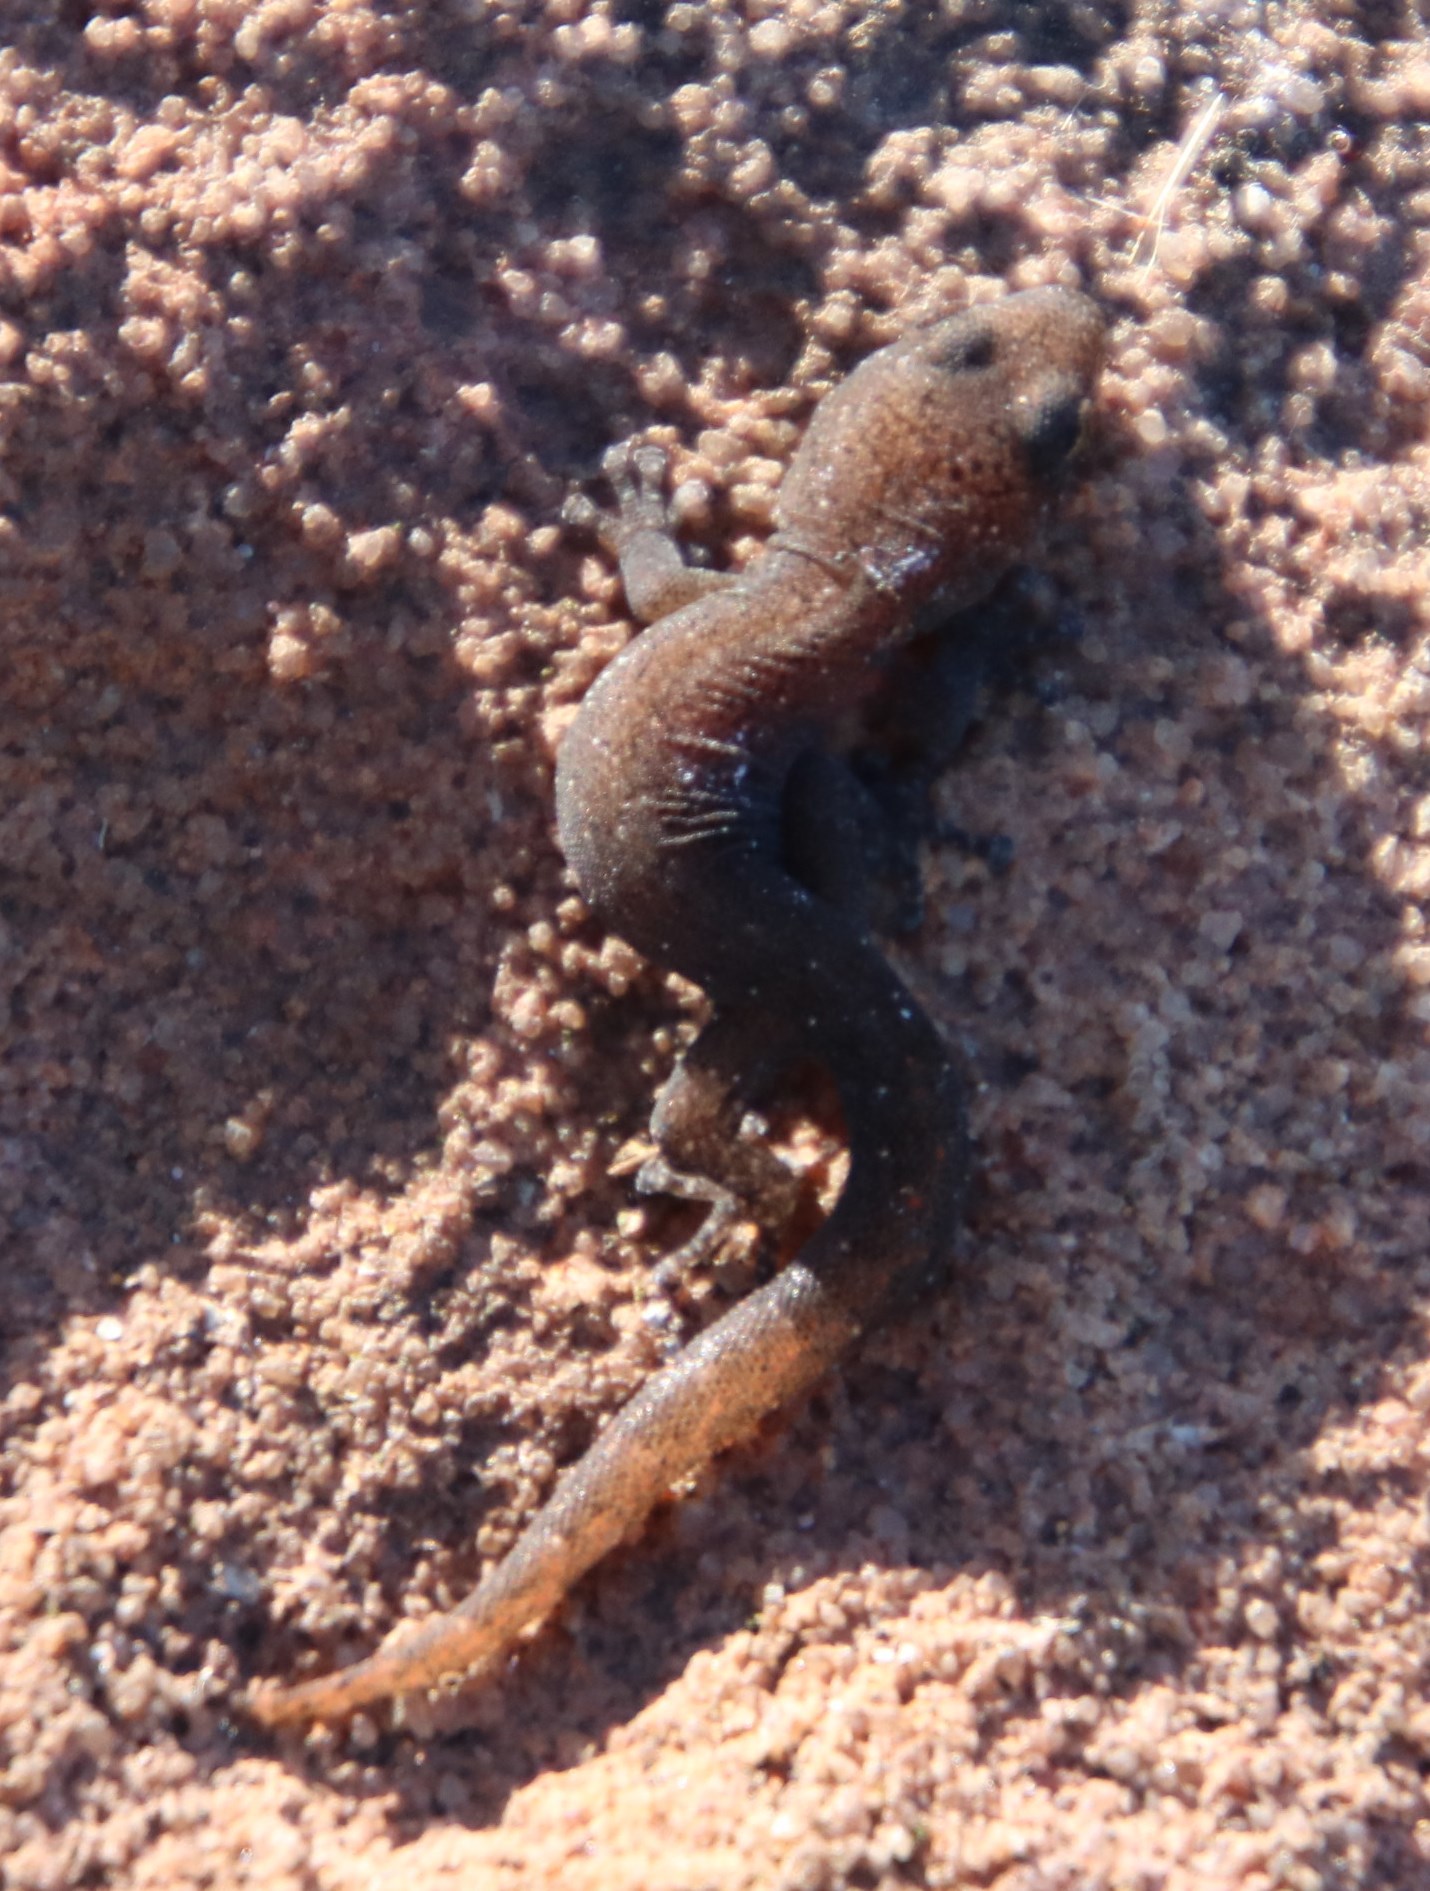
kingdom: Animalia
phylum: Chordata
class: Squamata
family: Gekkonidae
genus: Afrogecko
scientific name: Afrogecko porphyreus
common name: Marbled leaf-toed gecko
